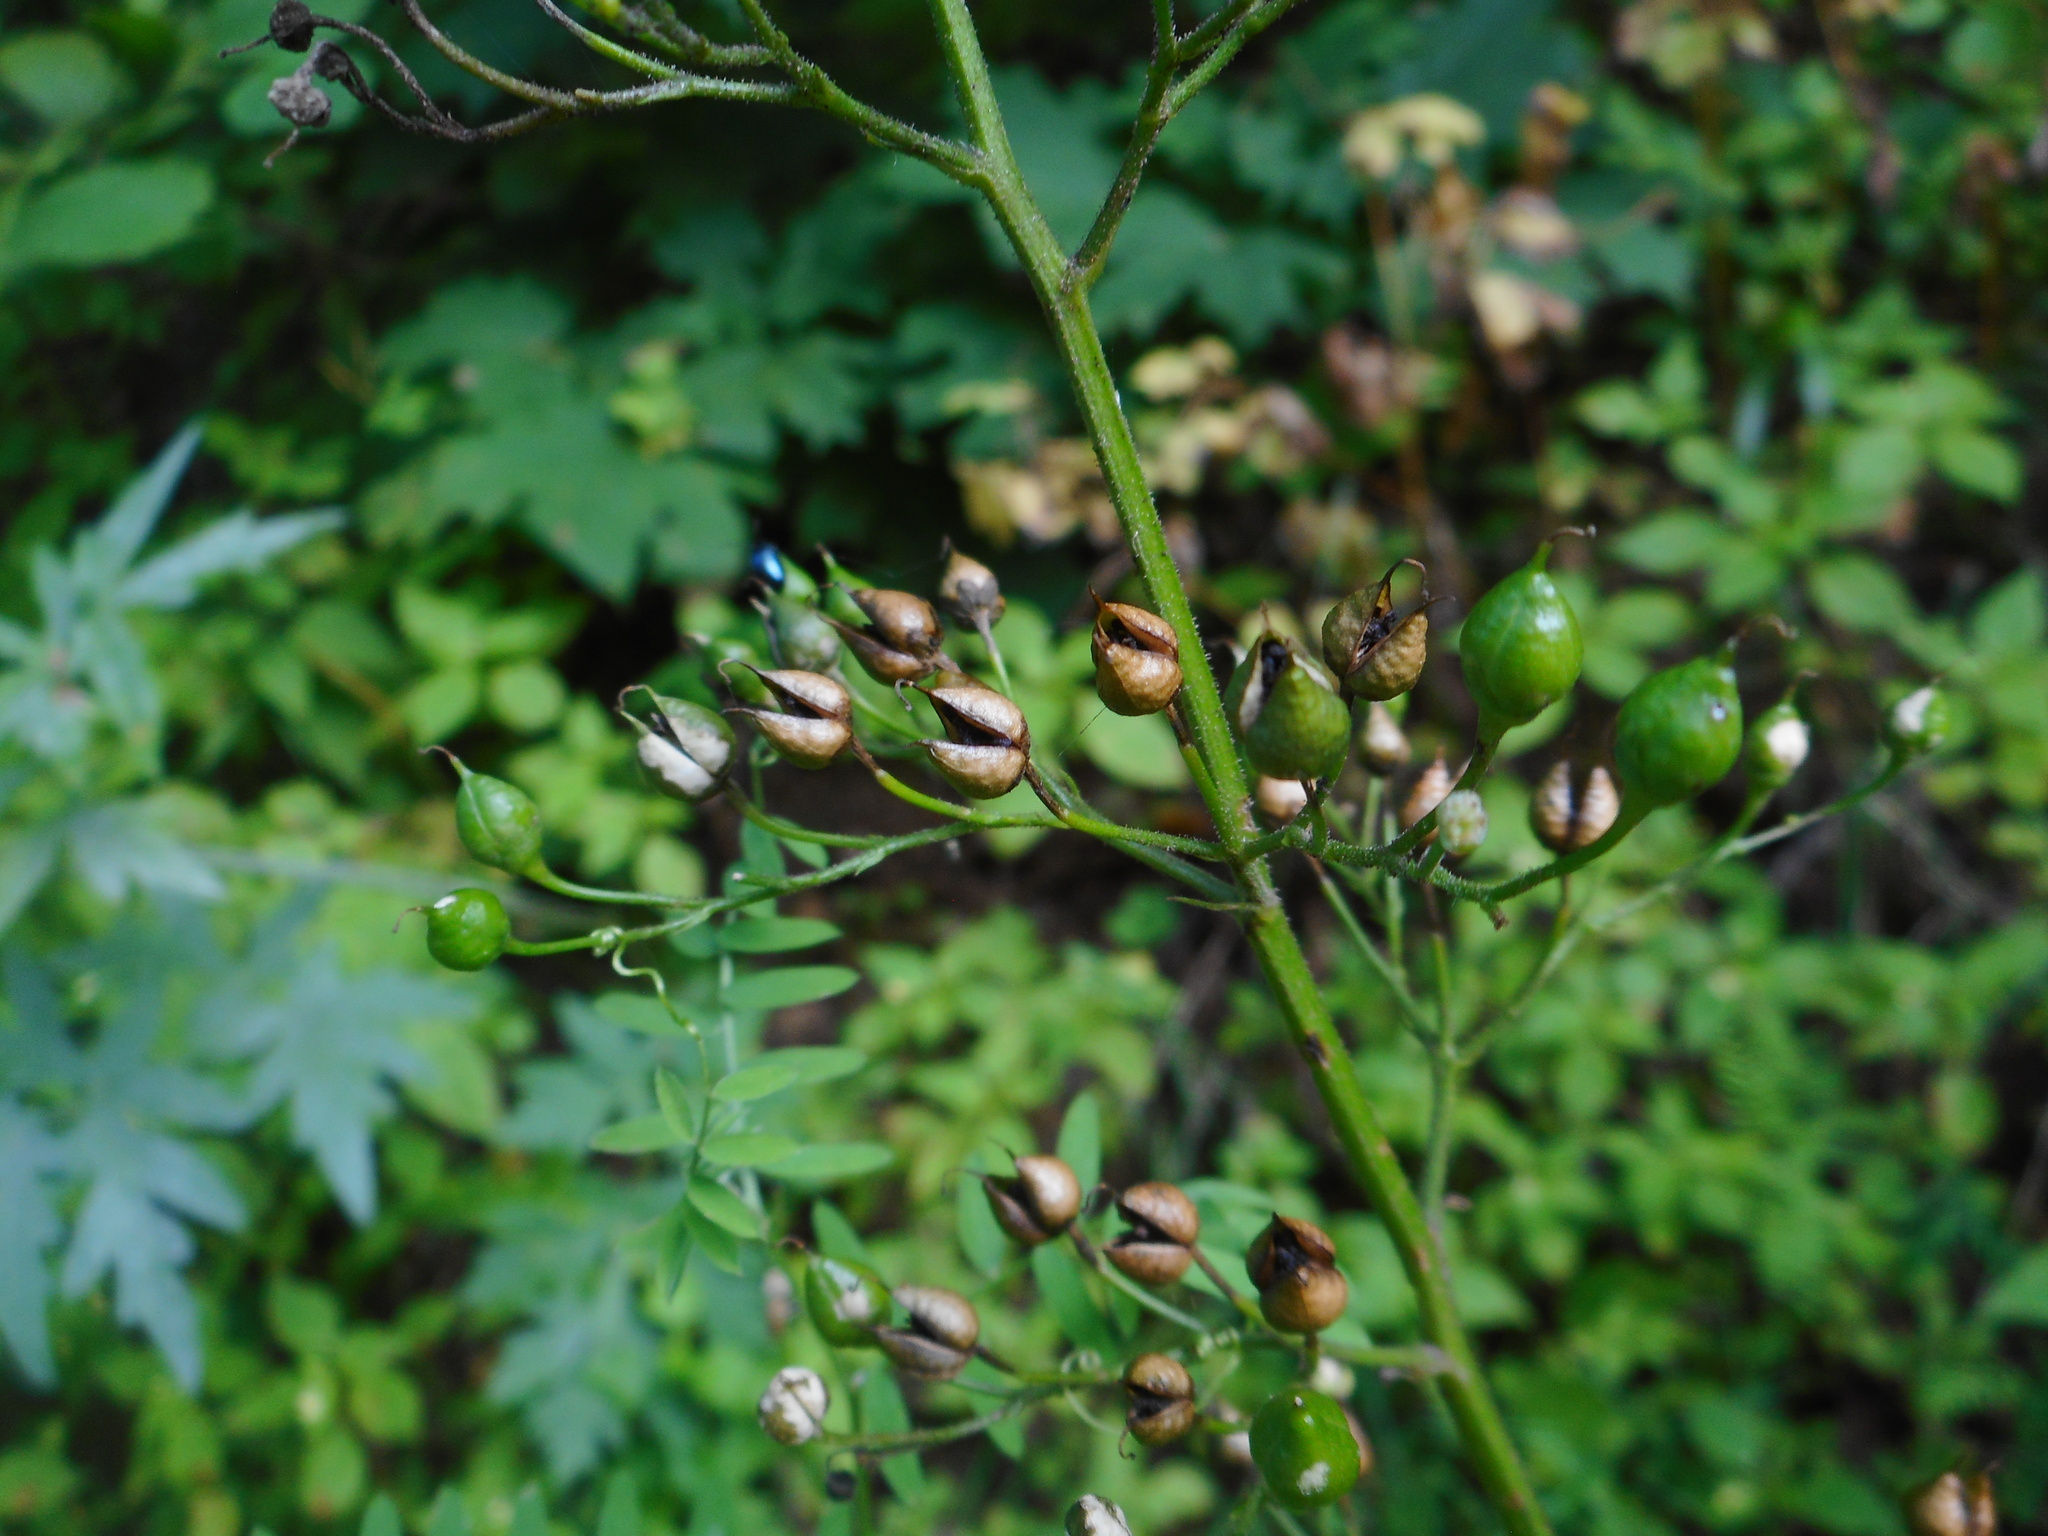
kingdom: Plantae
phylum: Tracheophyta
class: Magnoliopsida
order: Lamiales
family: Scrophulariaceae
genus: Scrophularia
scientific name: Scrophularia nodosa
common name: Common figwort
